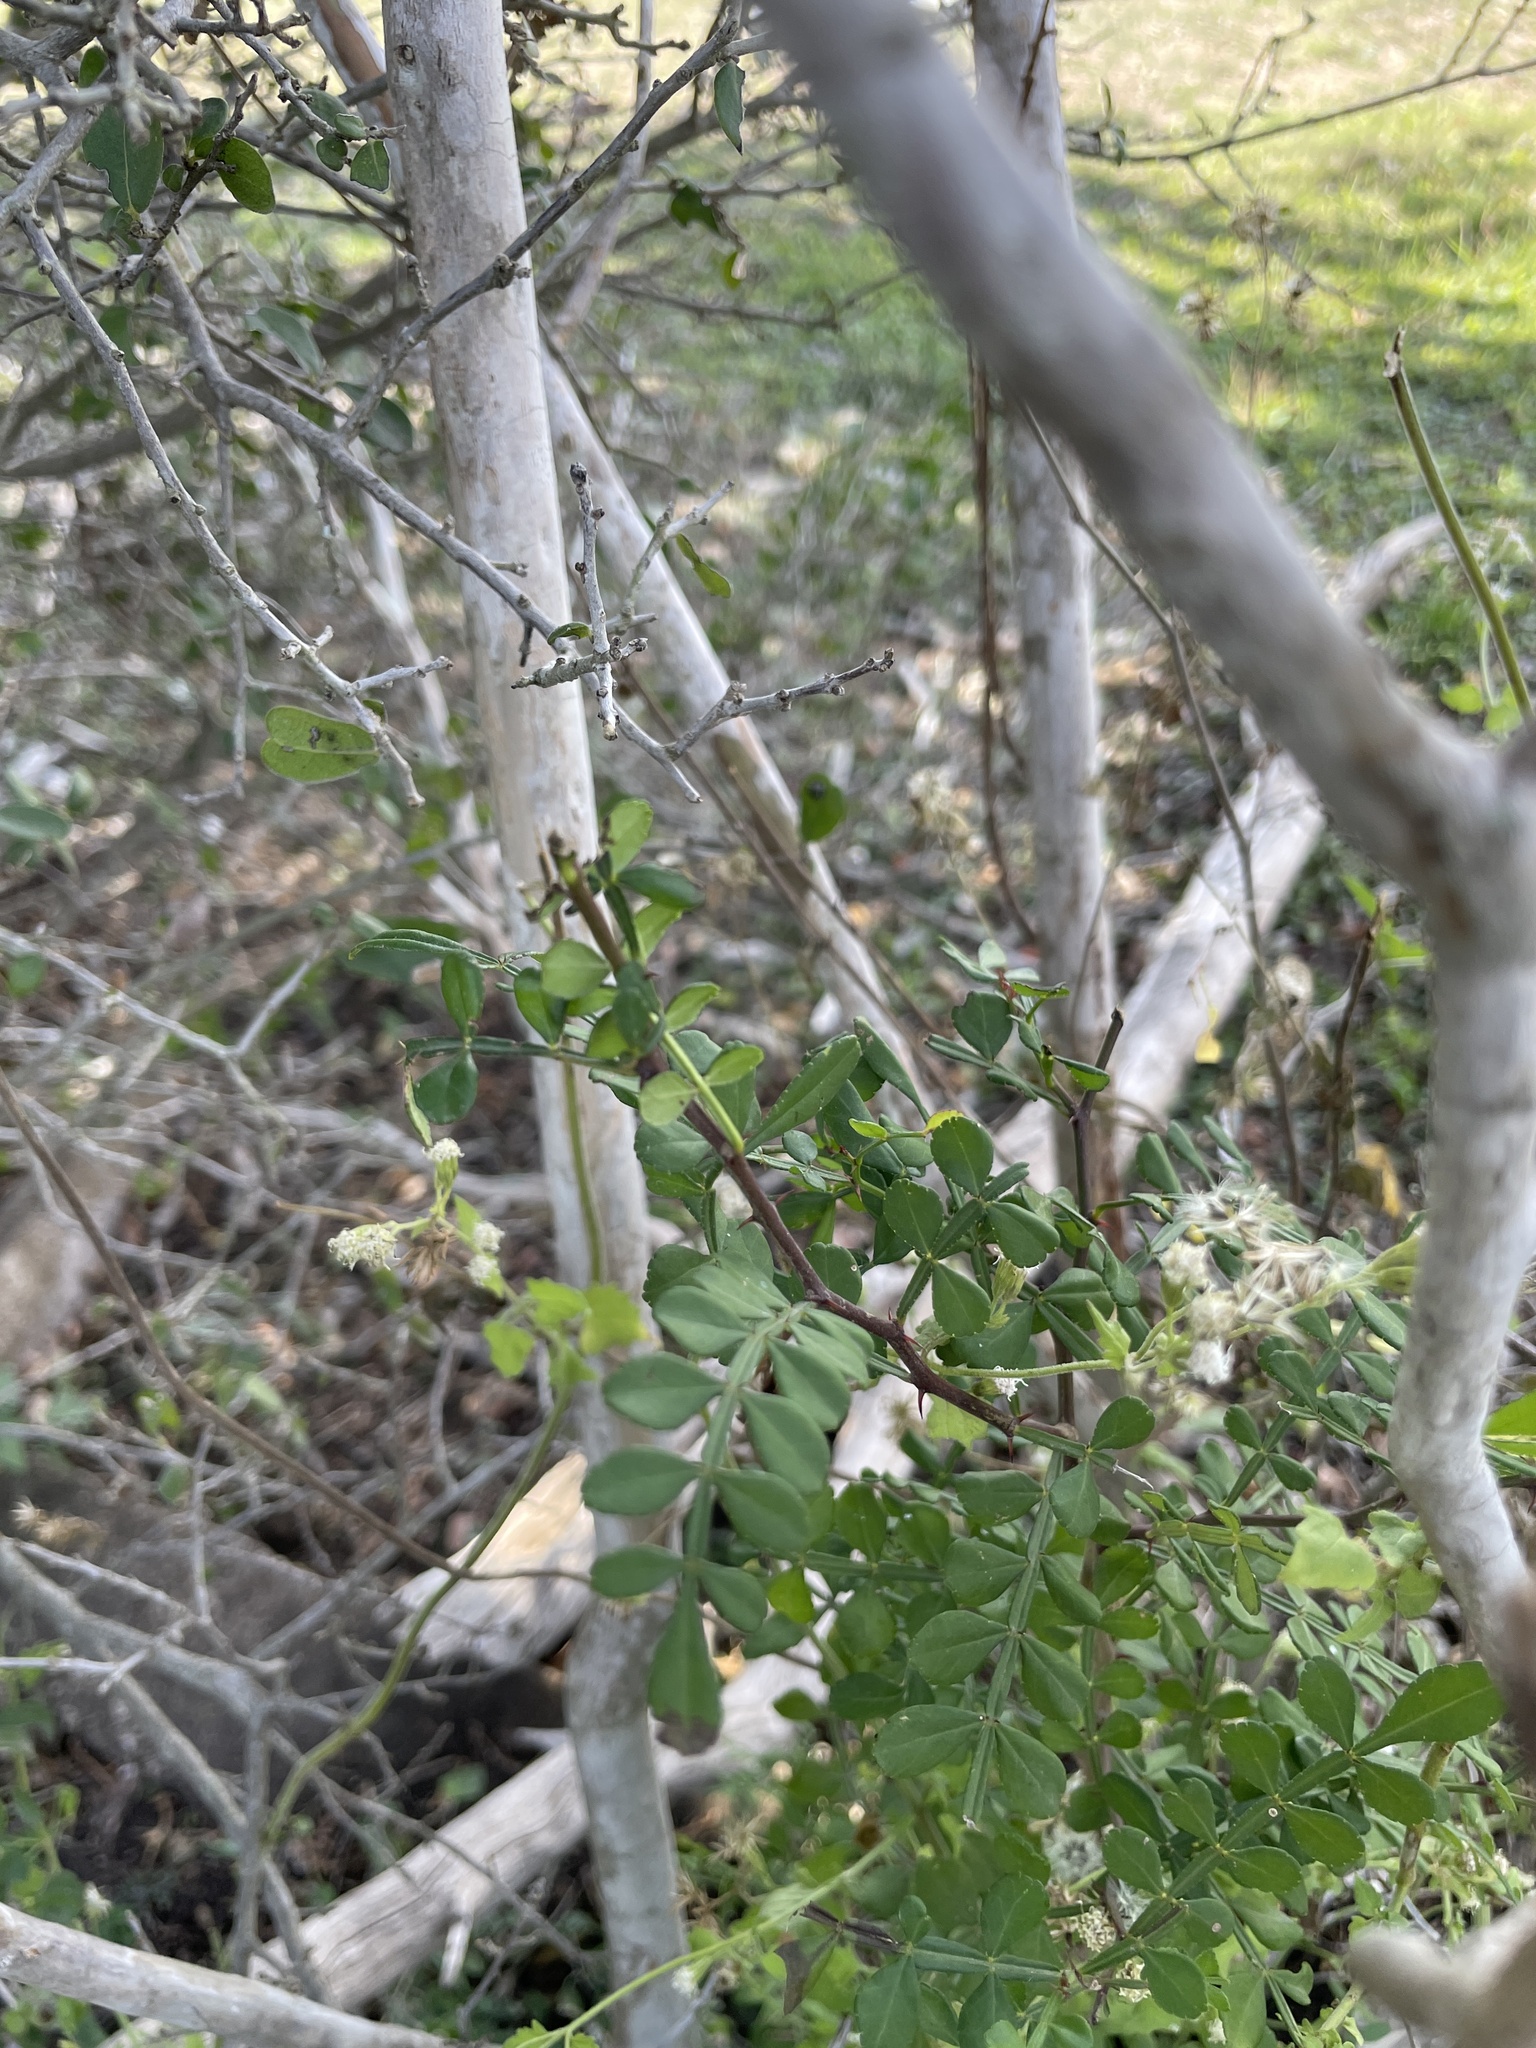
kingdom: Plantae
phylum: Tracheophyta
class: Magnoliopsida
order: Sapindales
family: Rutaceae
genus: Zanthoxylum
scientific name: Zanthoxylum fagara
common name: Lime prickly-ash
